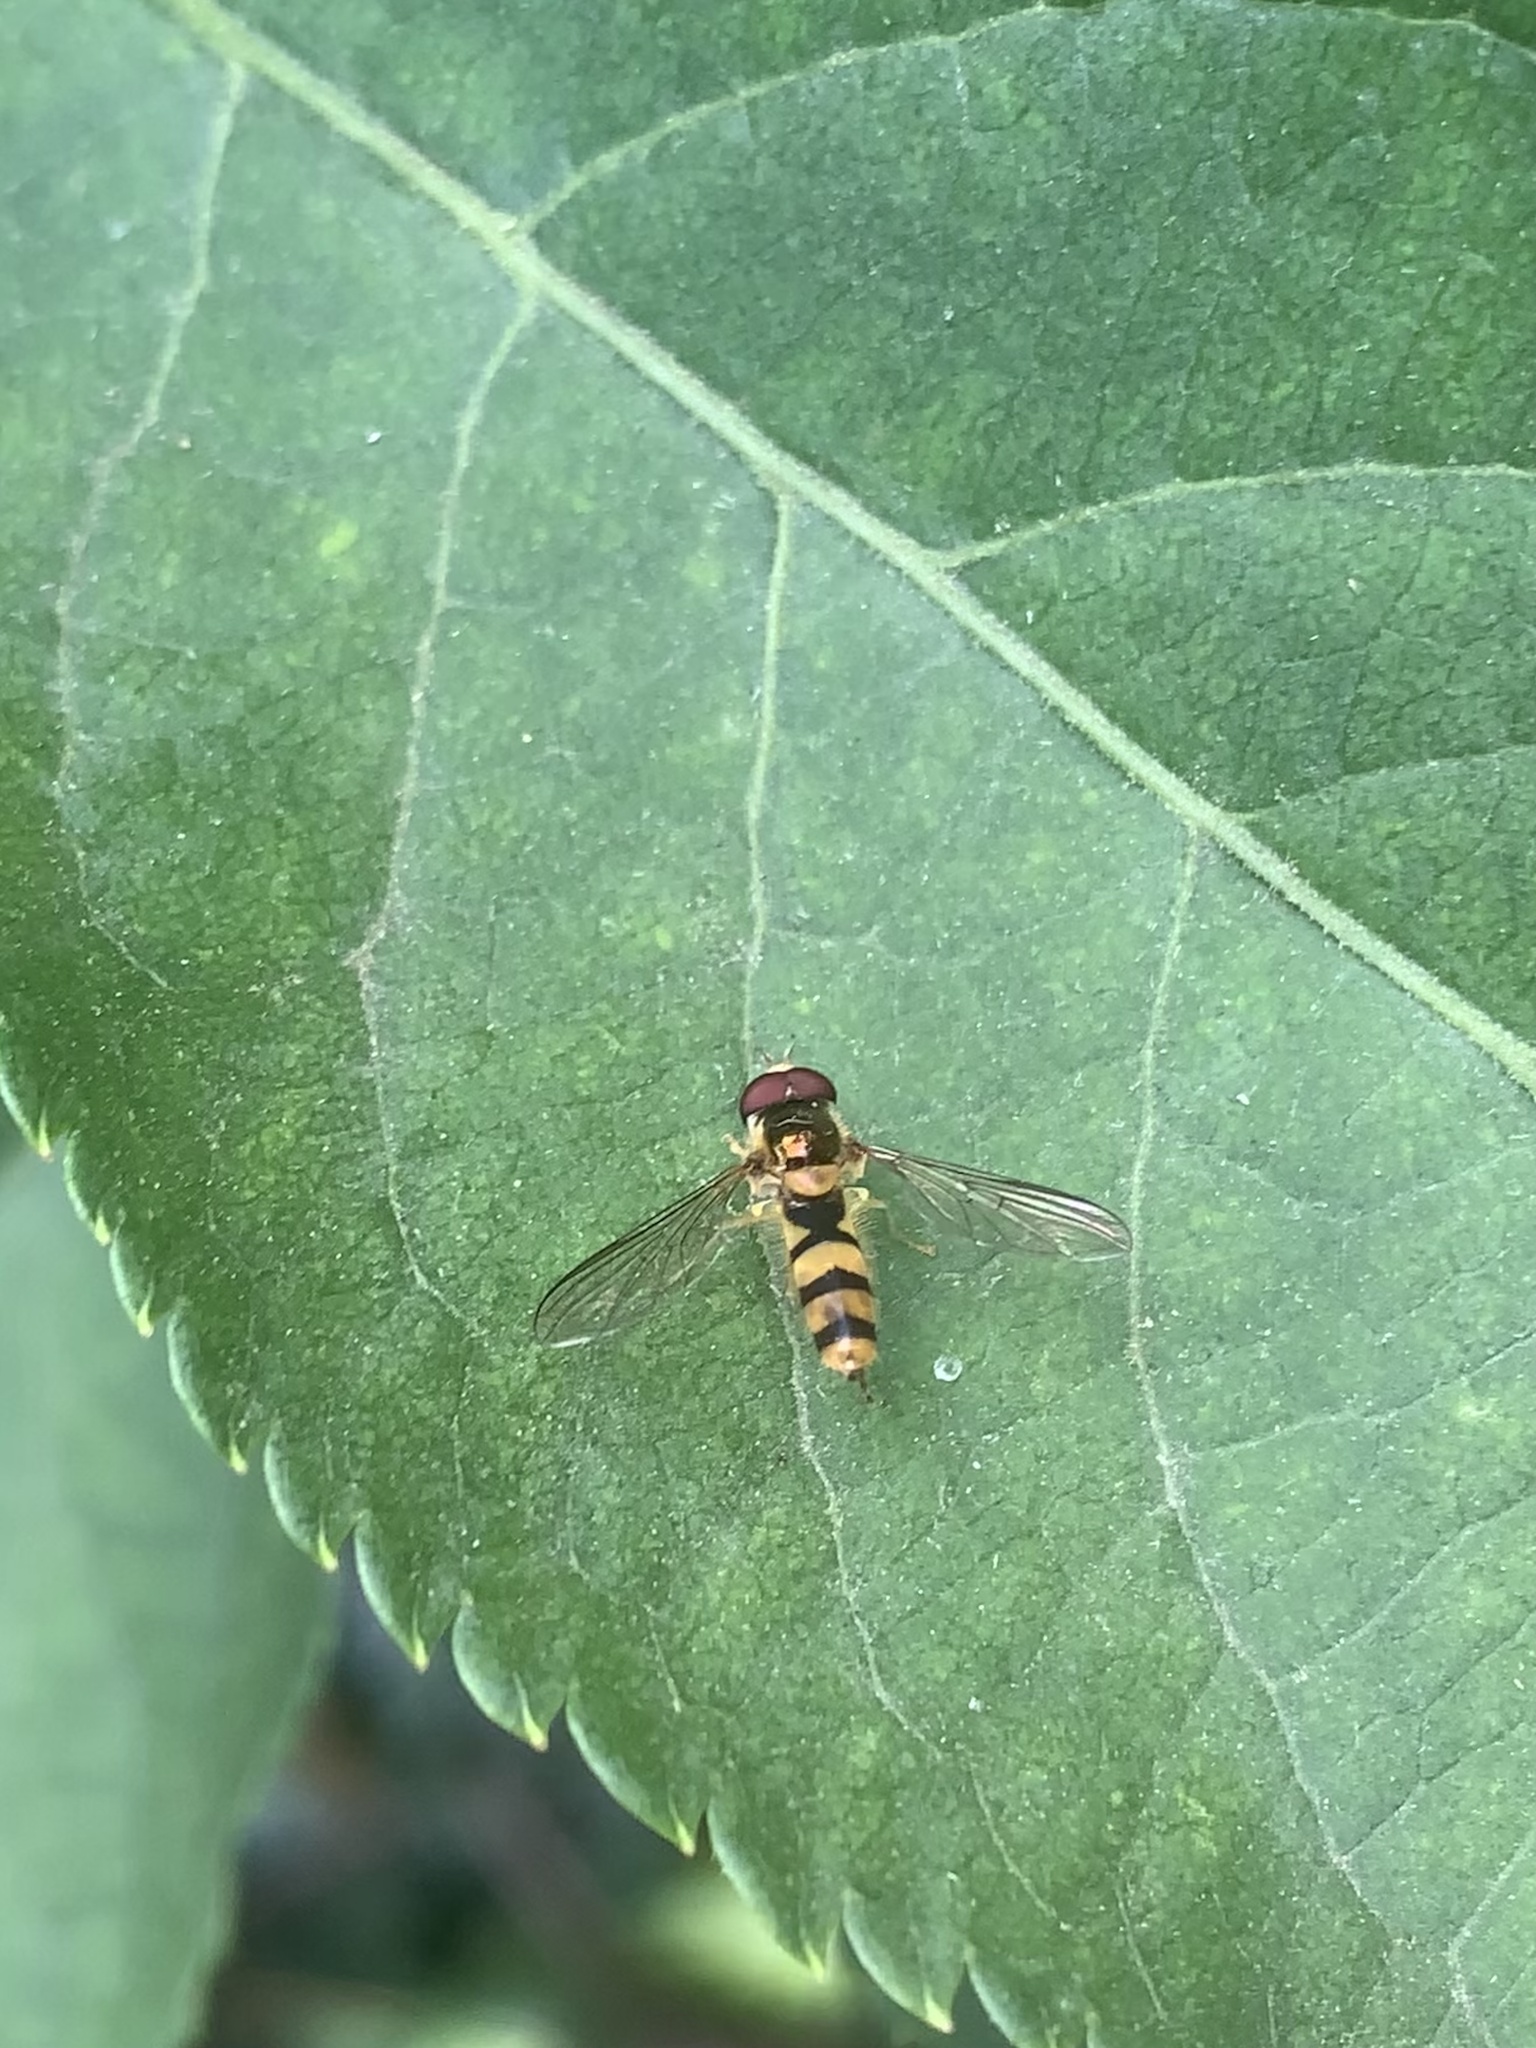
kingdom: Animalia
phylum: Arthropoda
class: Insecta
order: Diptera
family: Syrphidae
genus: Meliscaeva
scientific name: Meliscaeva cinctella
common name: American thintail fly
